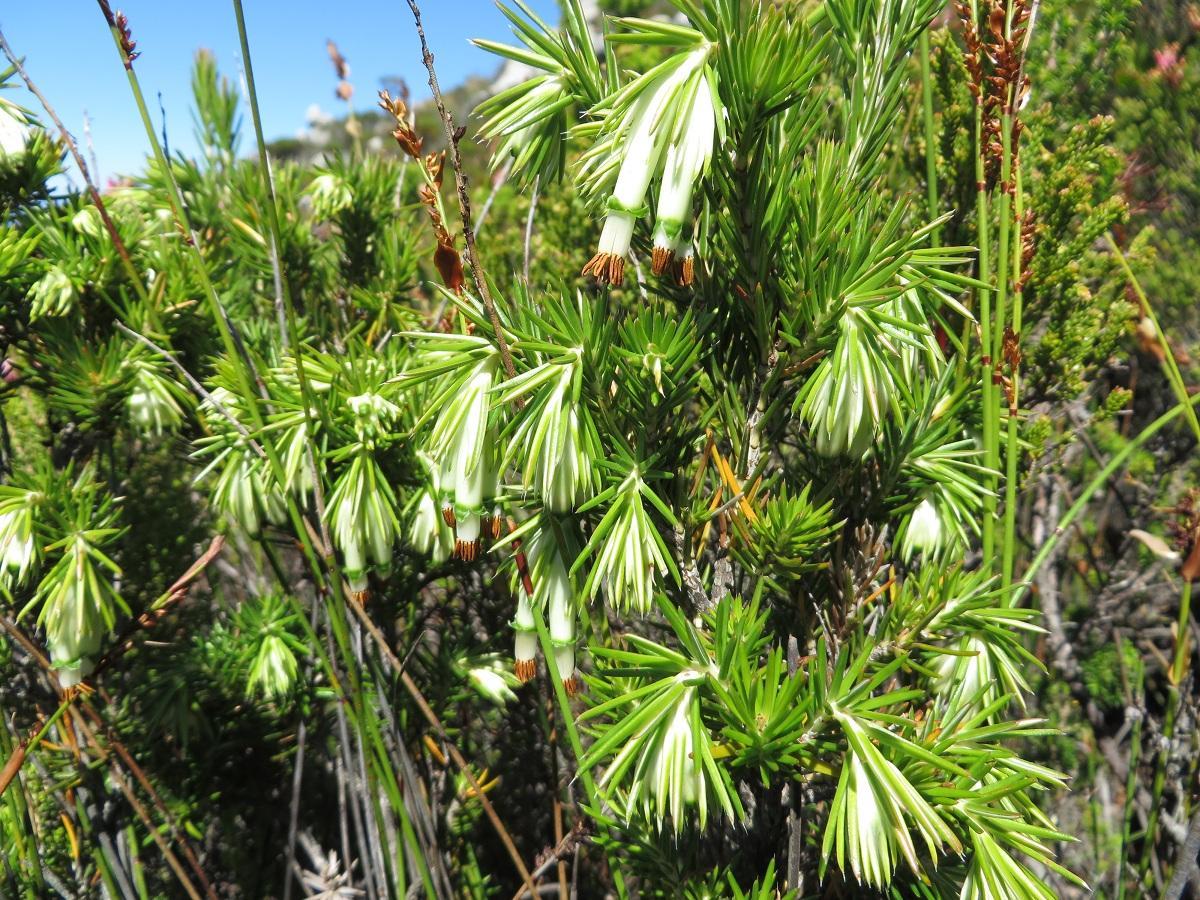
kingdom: Plantae
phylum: Tracheophyta
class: Magnoliopsida
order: Ericales
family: Ericaceae
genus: Erica
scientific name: Erica banksia
